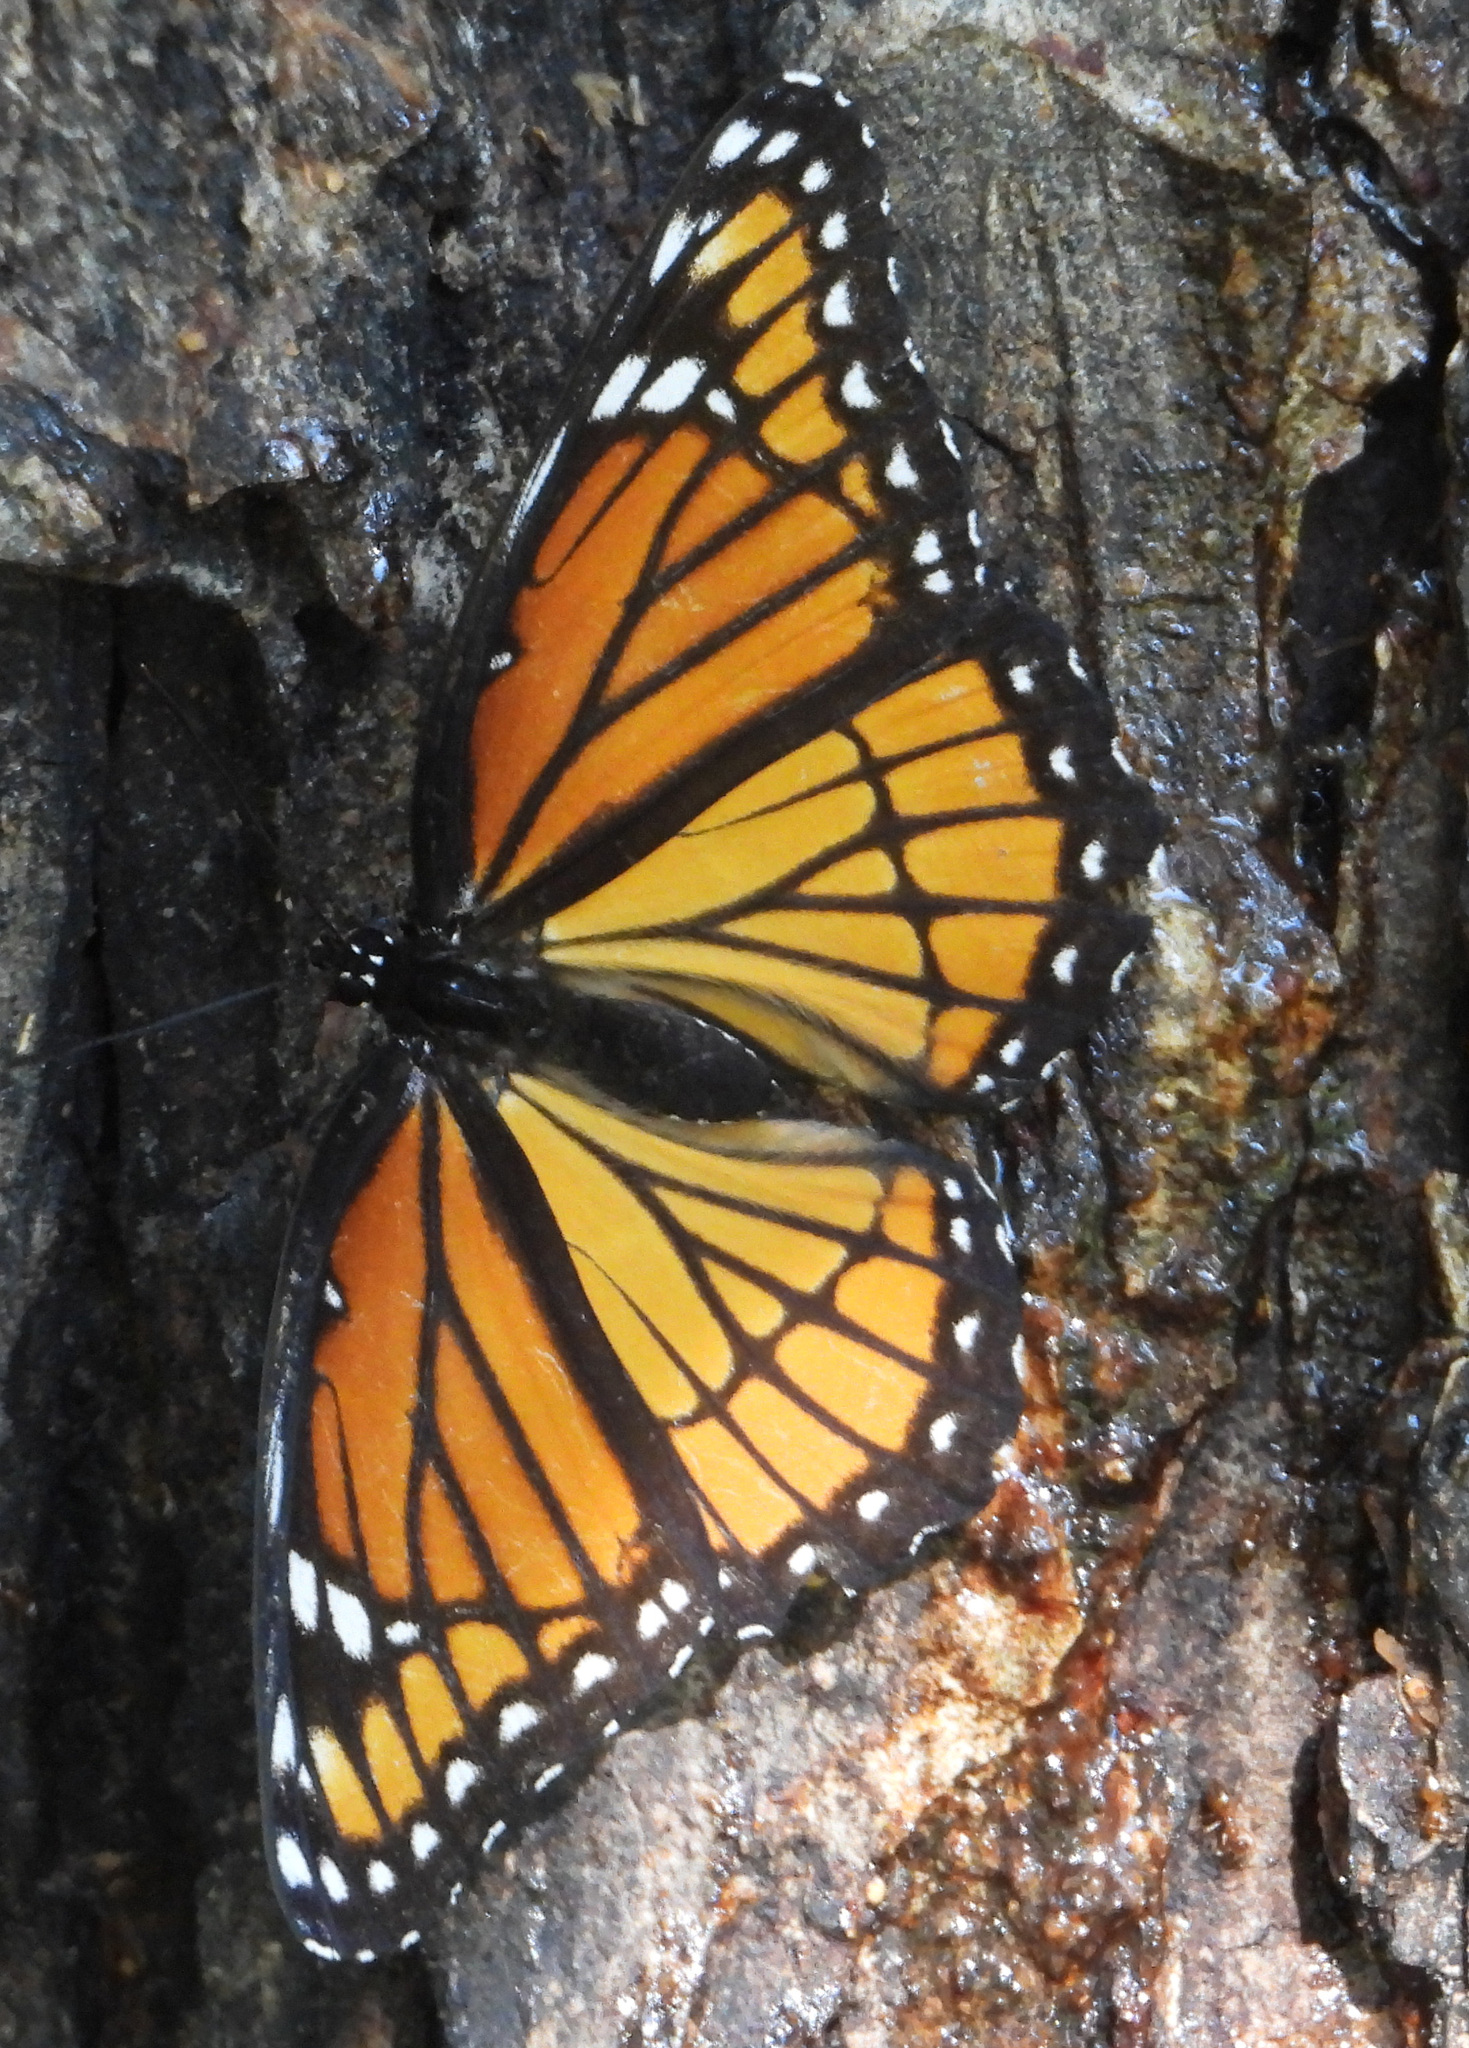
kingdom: Animalia
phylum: Arthropoda
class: Insecta
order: Lepidoptera
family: Nymphalidae
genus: Limenitis
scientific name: Limenitis archippus
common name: Viceroy
